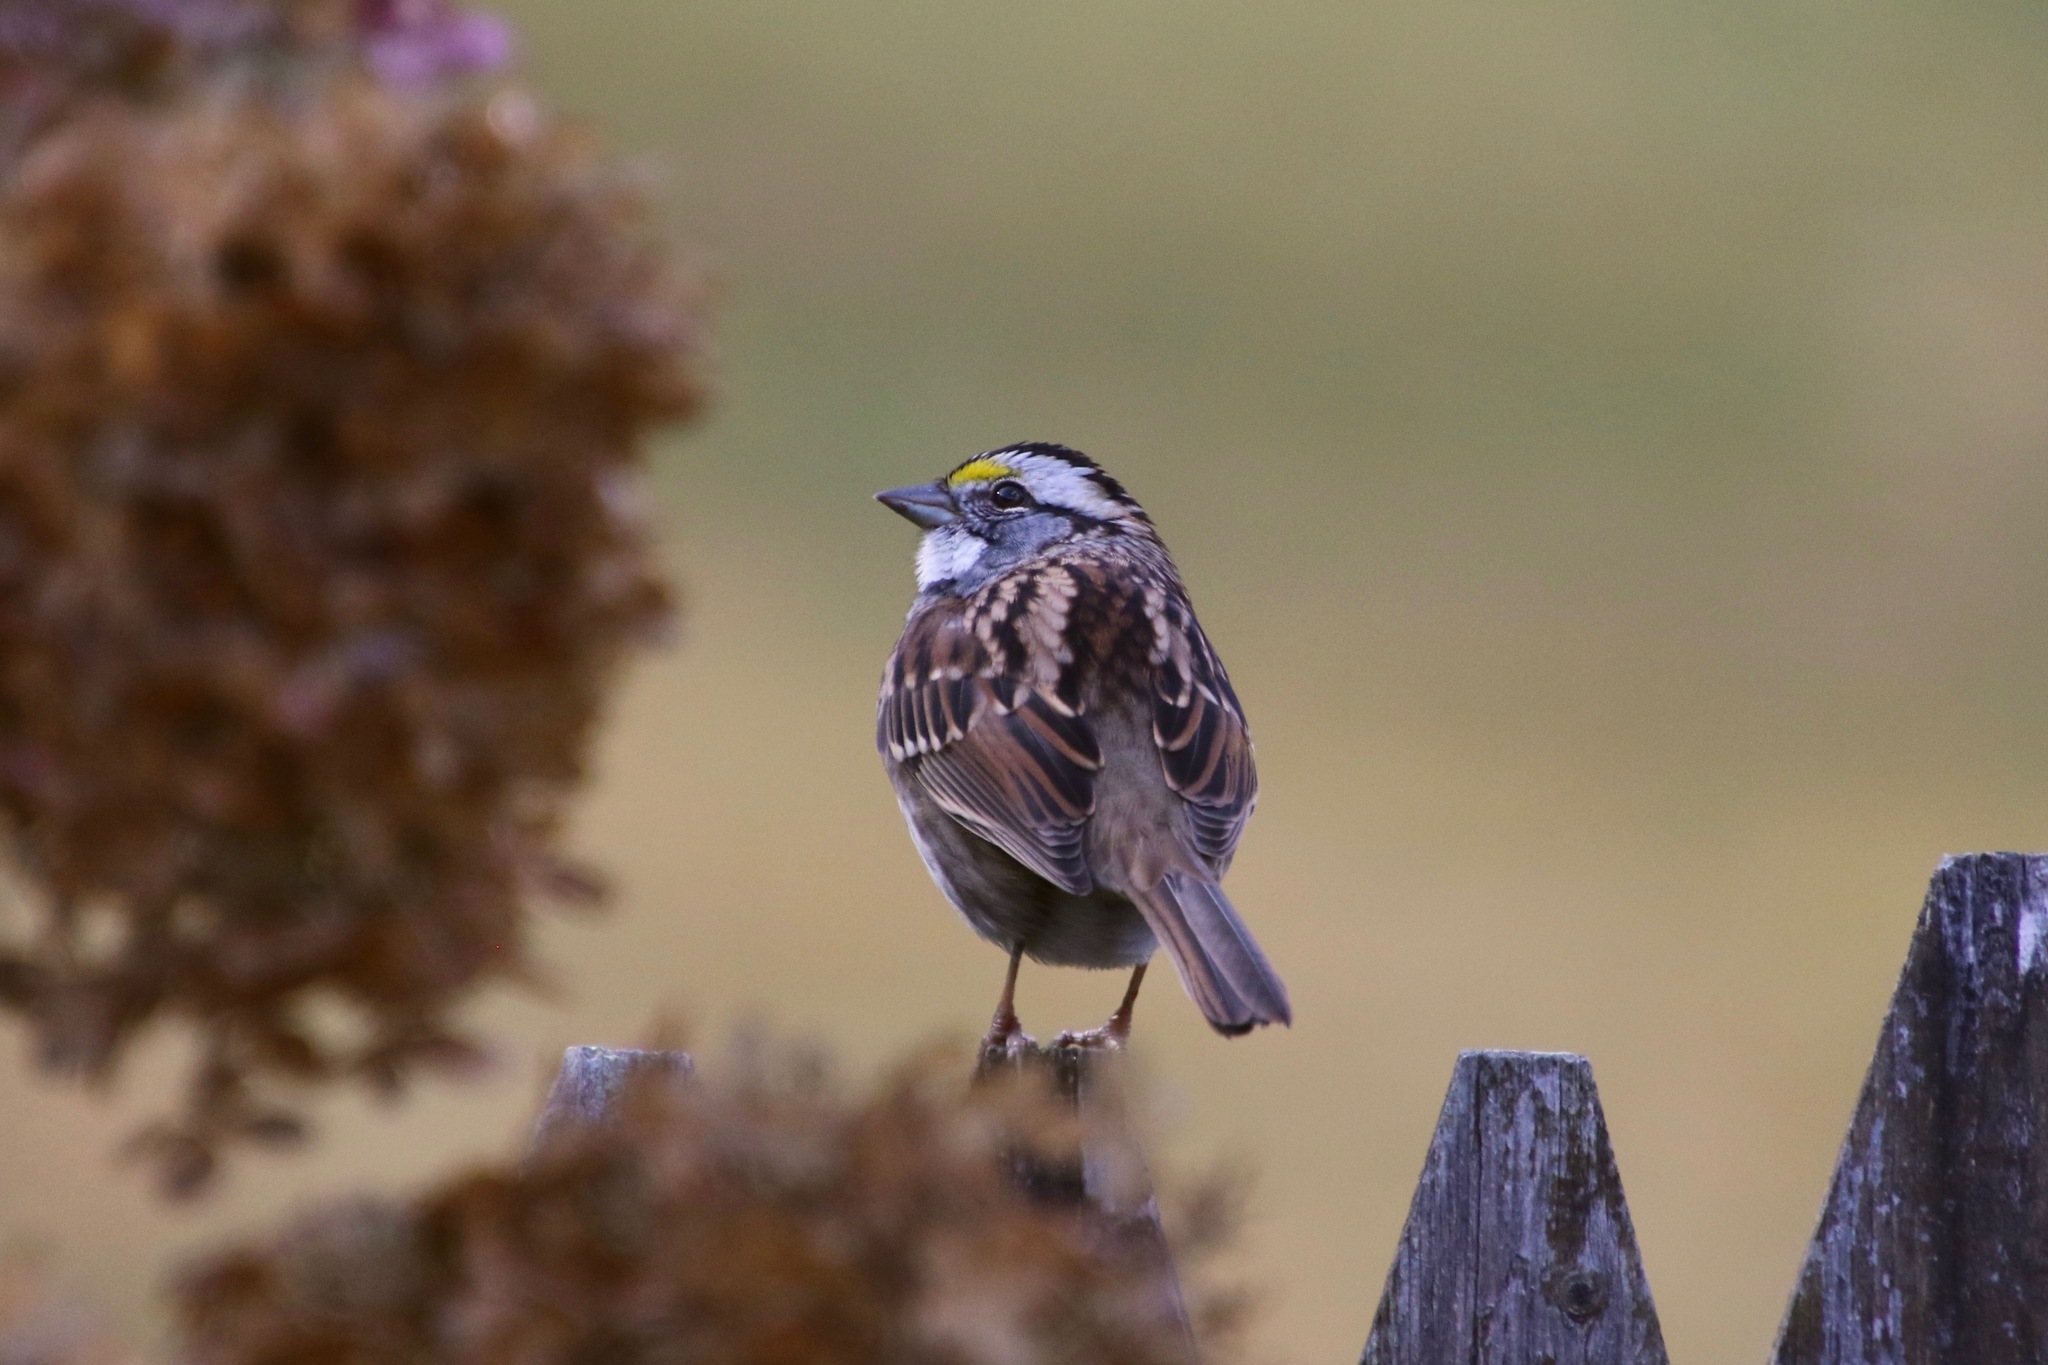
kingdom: Animalia
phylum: Chordata
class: Aves
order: Passeriformes
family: Passerellidae
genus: Zonotrichia
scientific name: Zonotrichia albicollis
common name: White-throated sparrow
